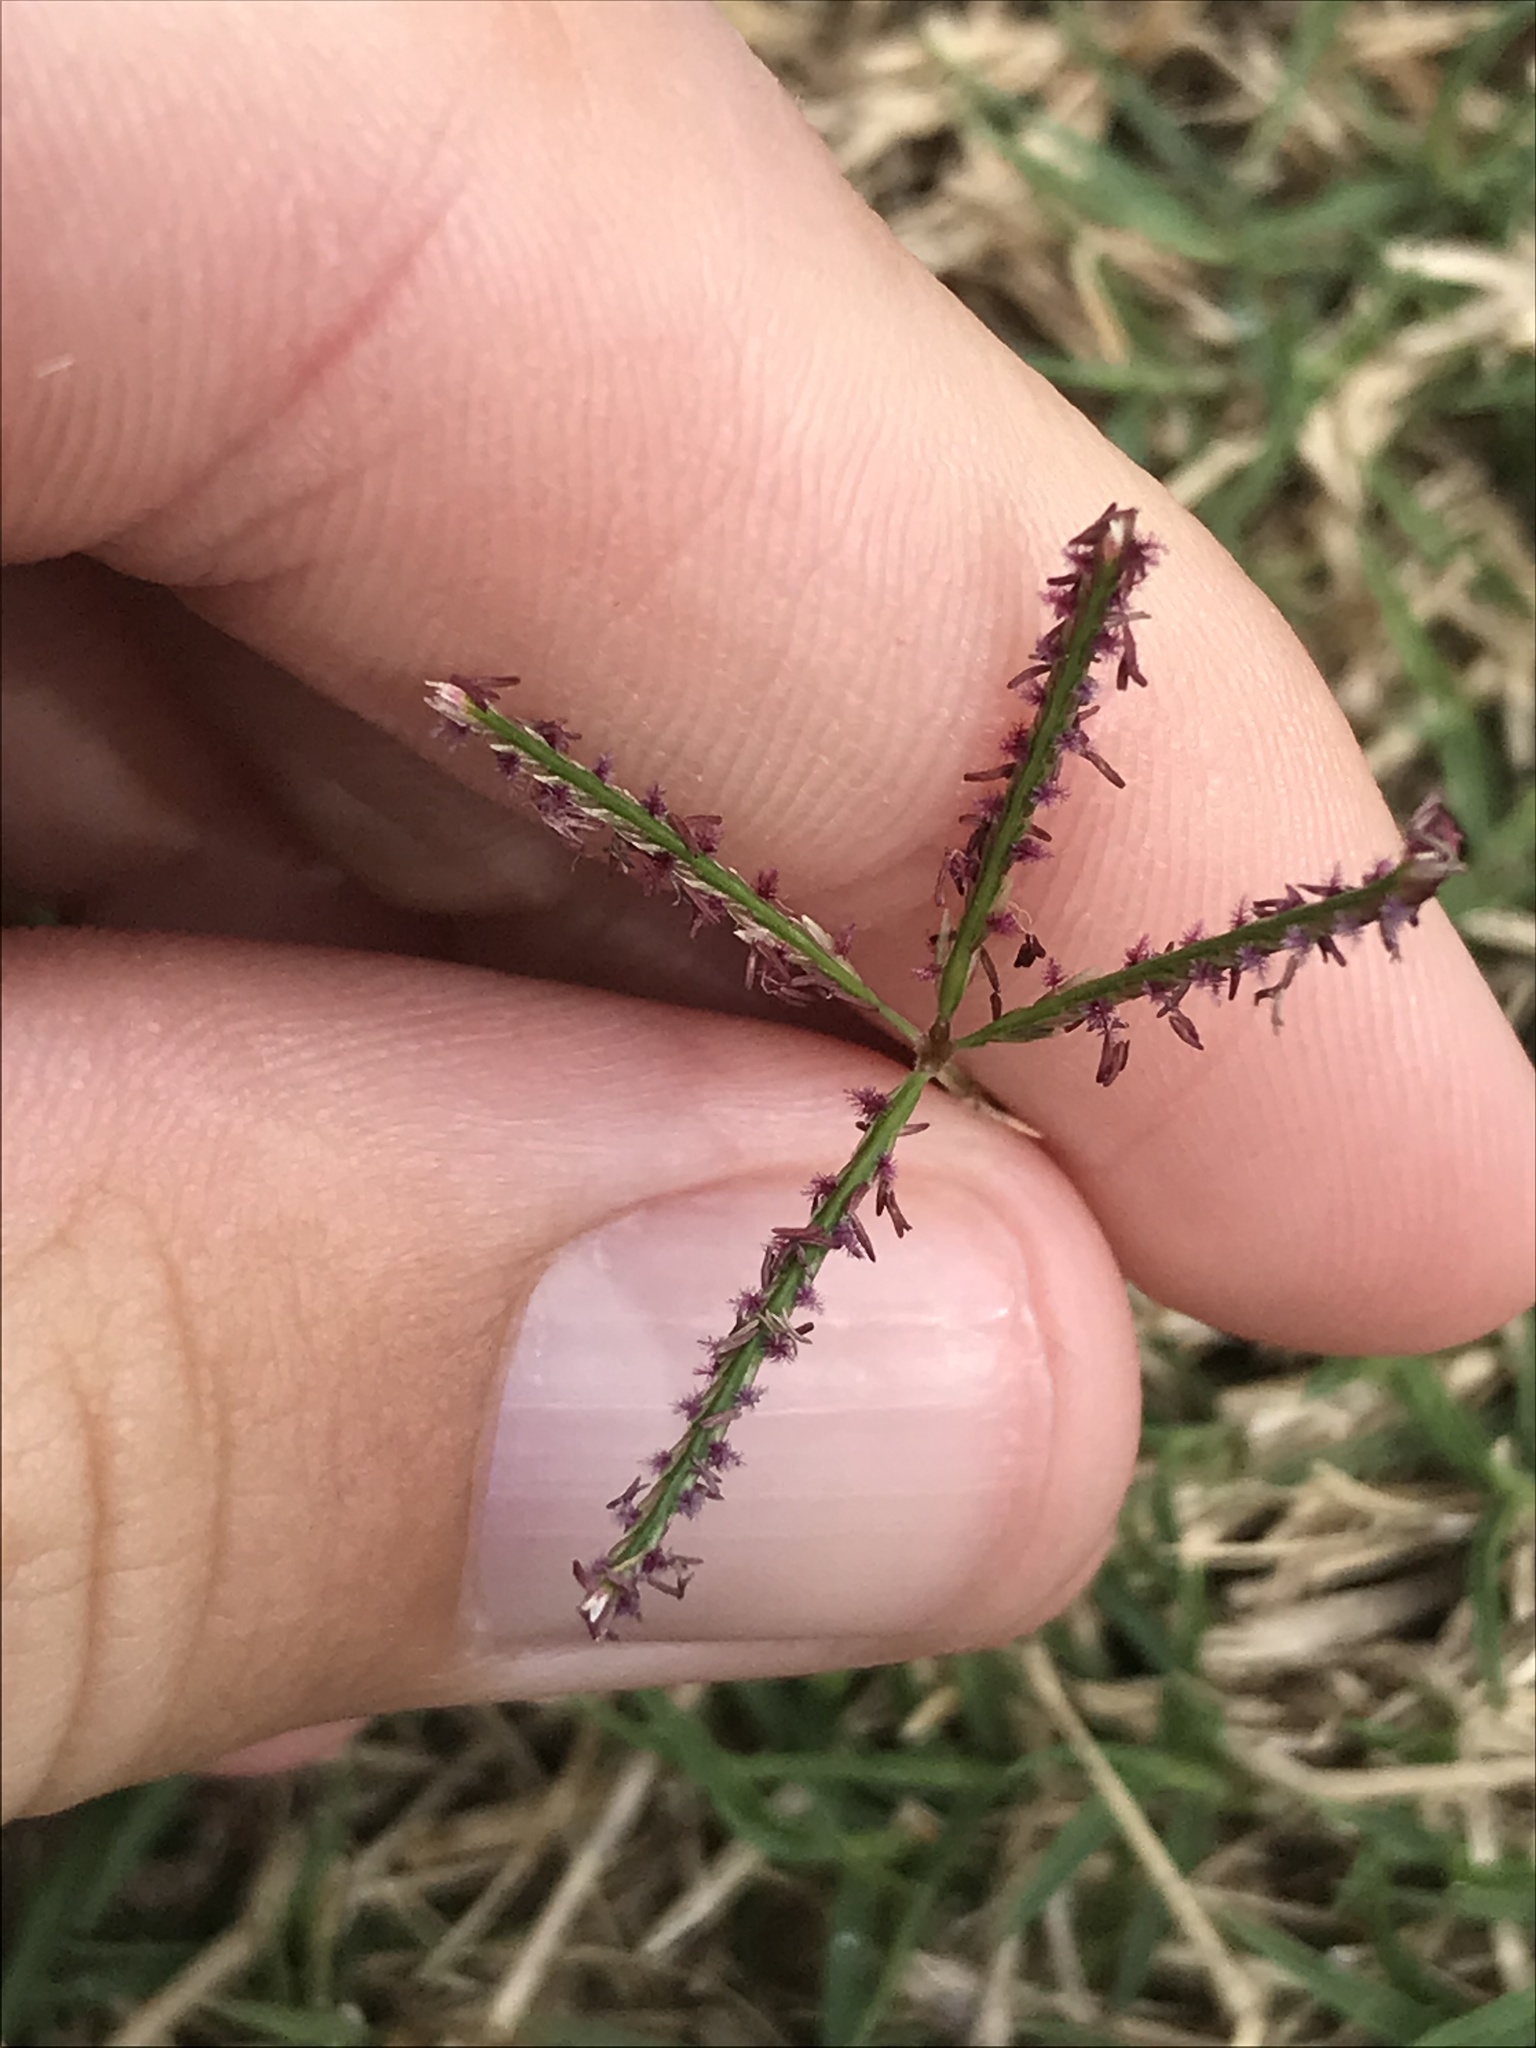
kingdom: Plantae
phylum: Tracheophyta
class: Liliopsida
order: Poales
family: Poaceae
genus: Cynodon
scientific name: Cynodon dactylon
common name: Bermuda grass
